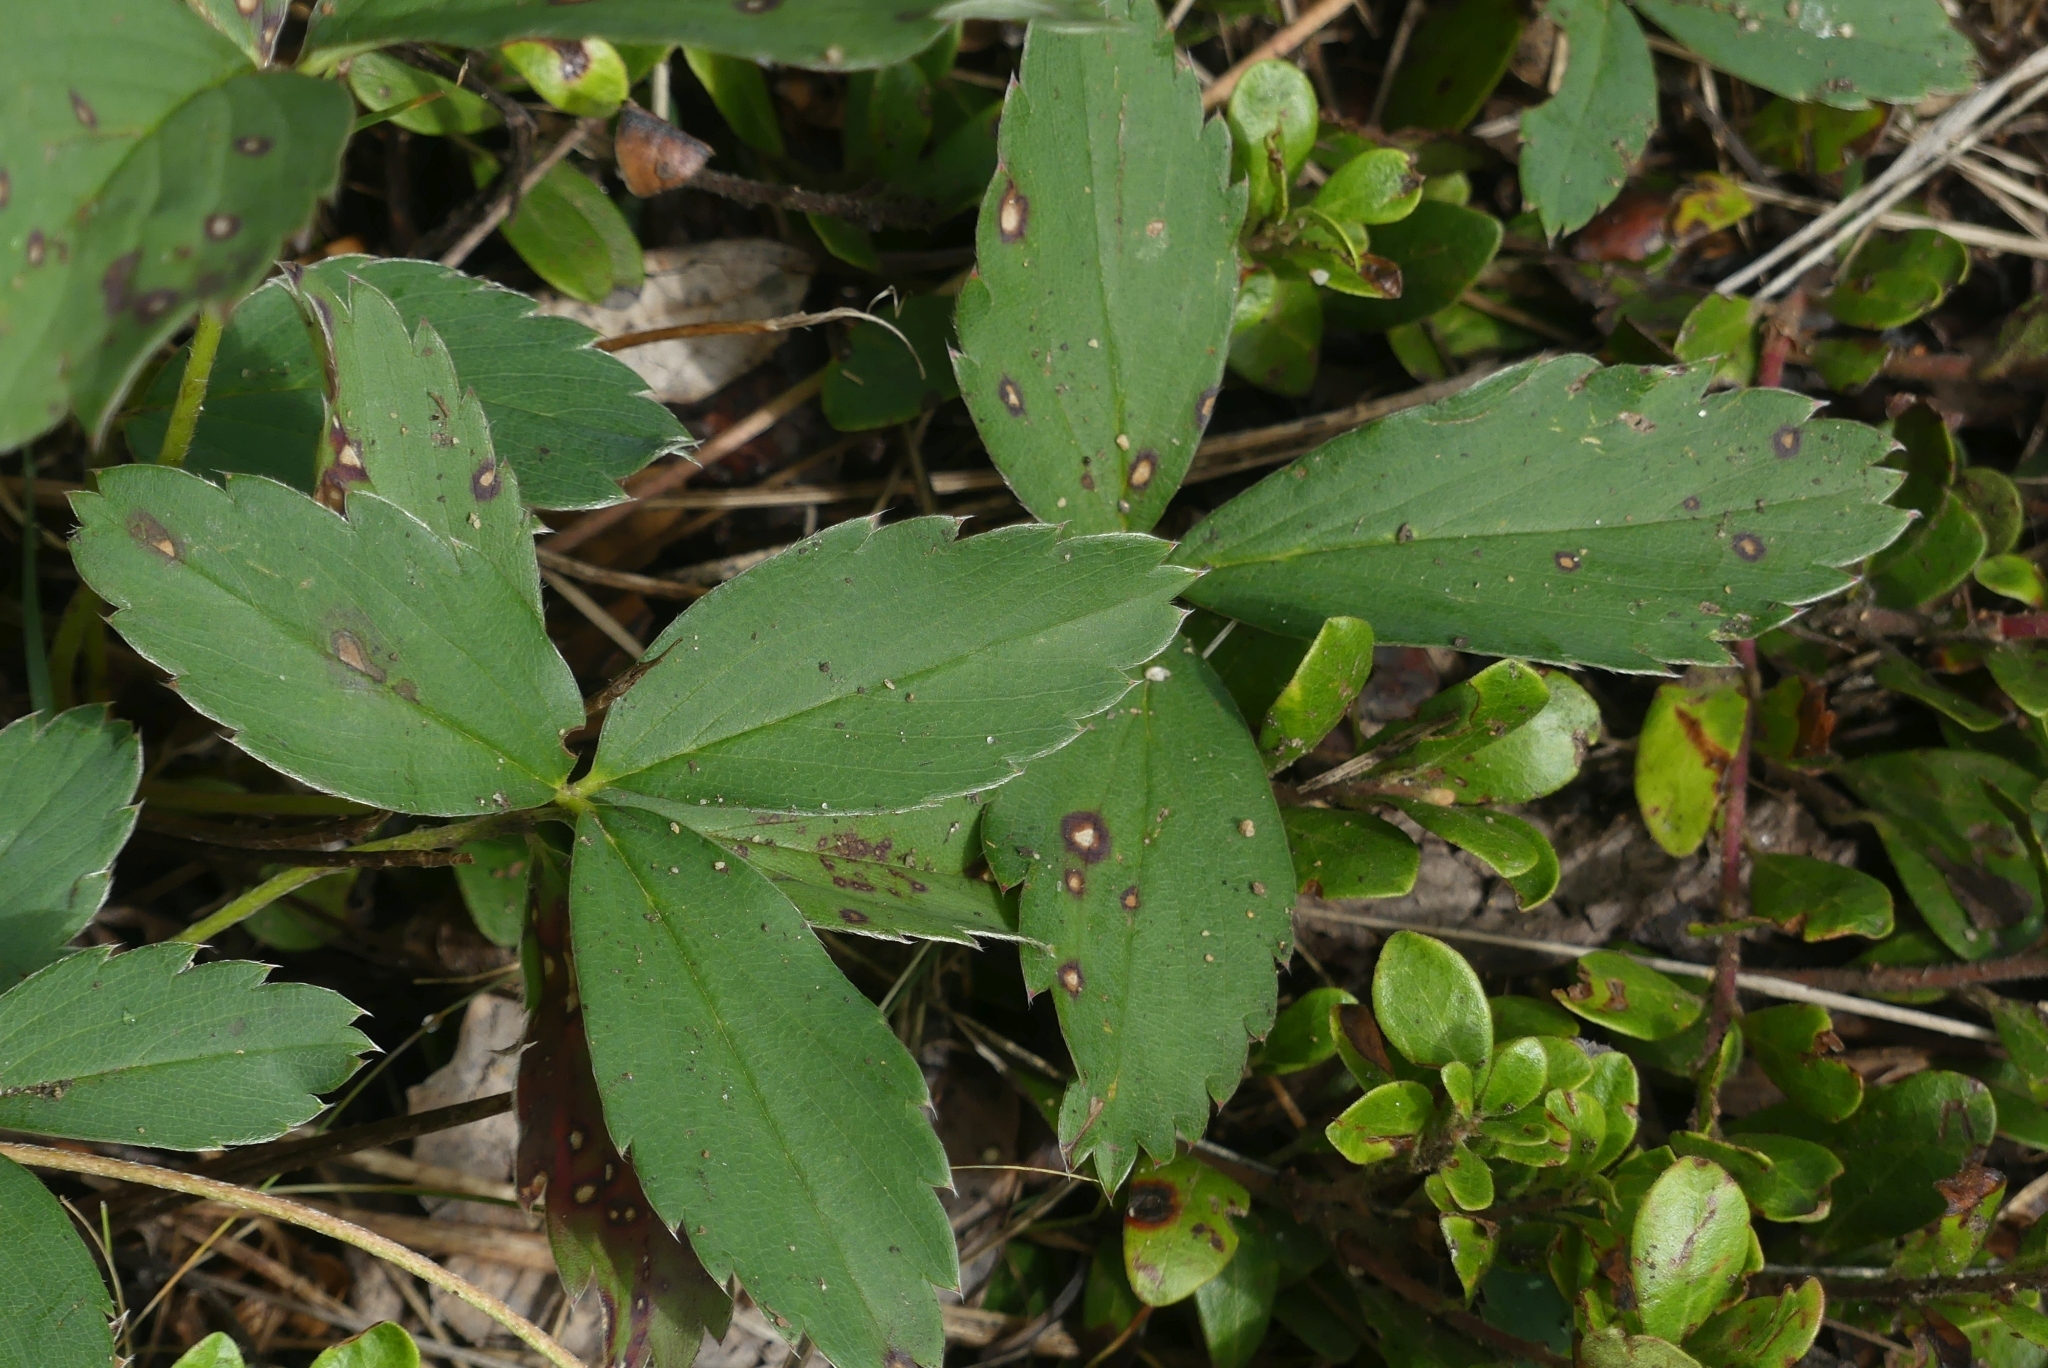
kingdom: Plantae
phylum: Tracheophyta
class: Magnoliopsida
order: Rosales
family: Rosaceae
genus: Fragaria
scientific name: Fragaria virginiana
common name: Thickleaved wild strawberry
